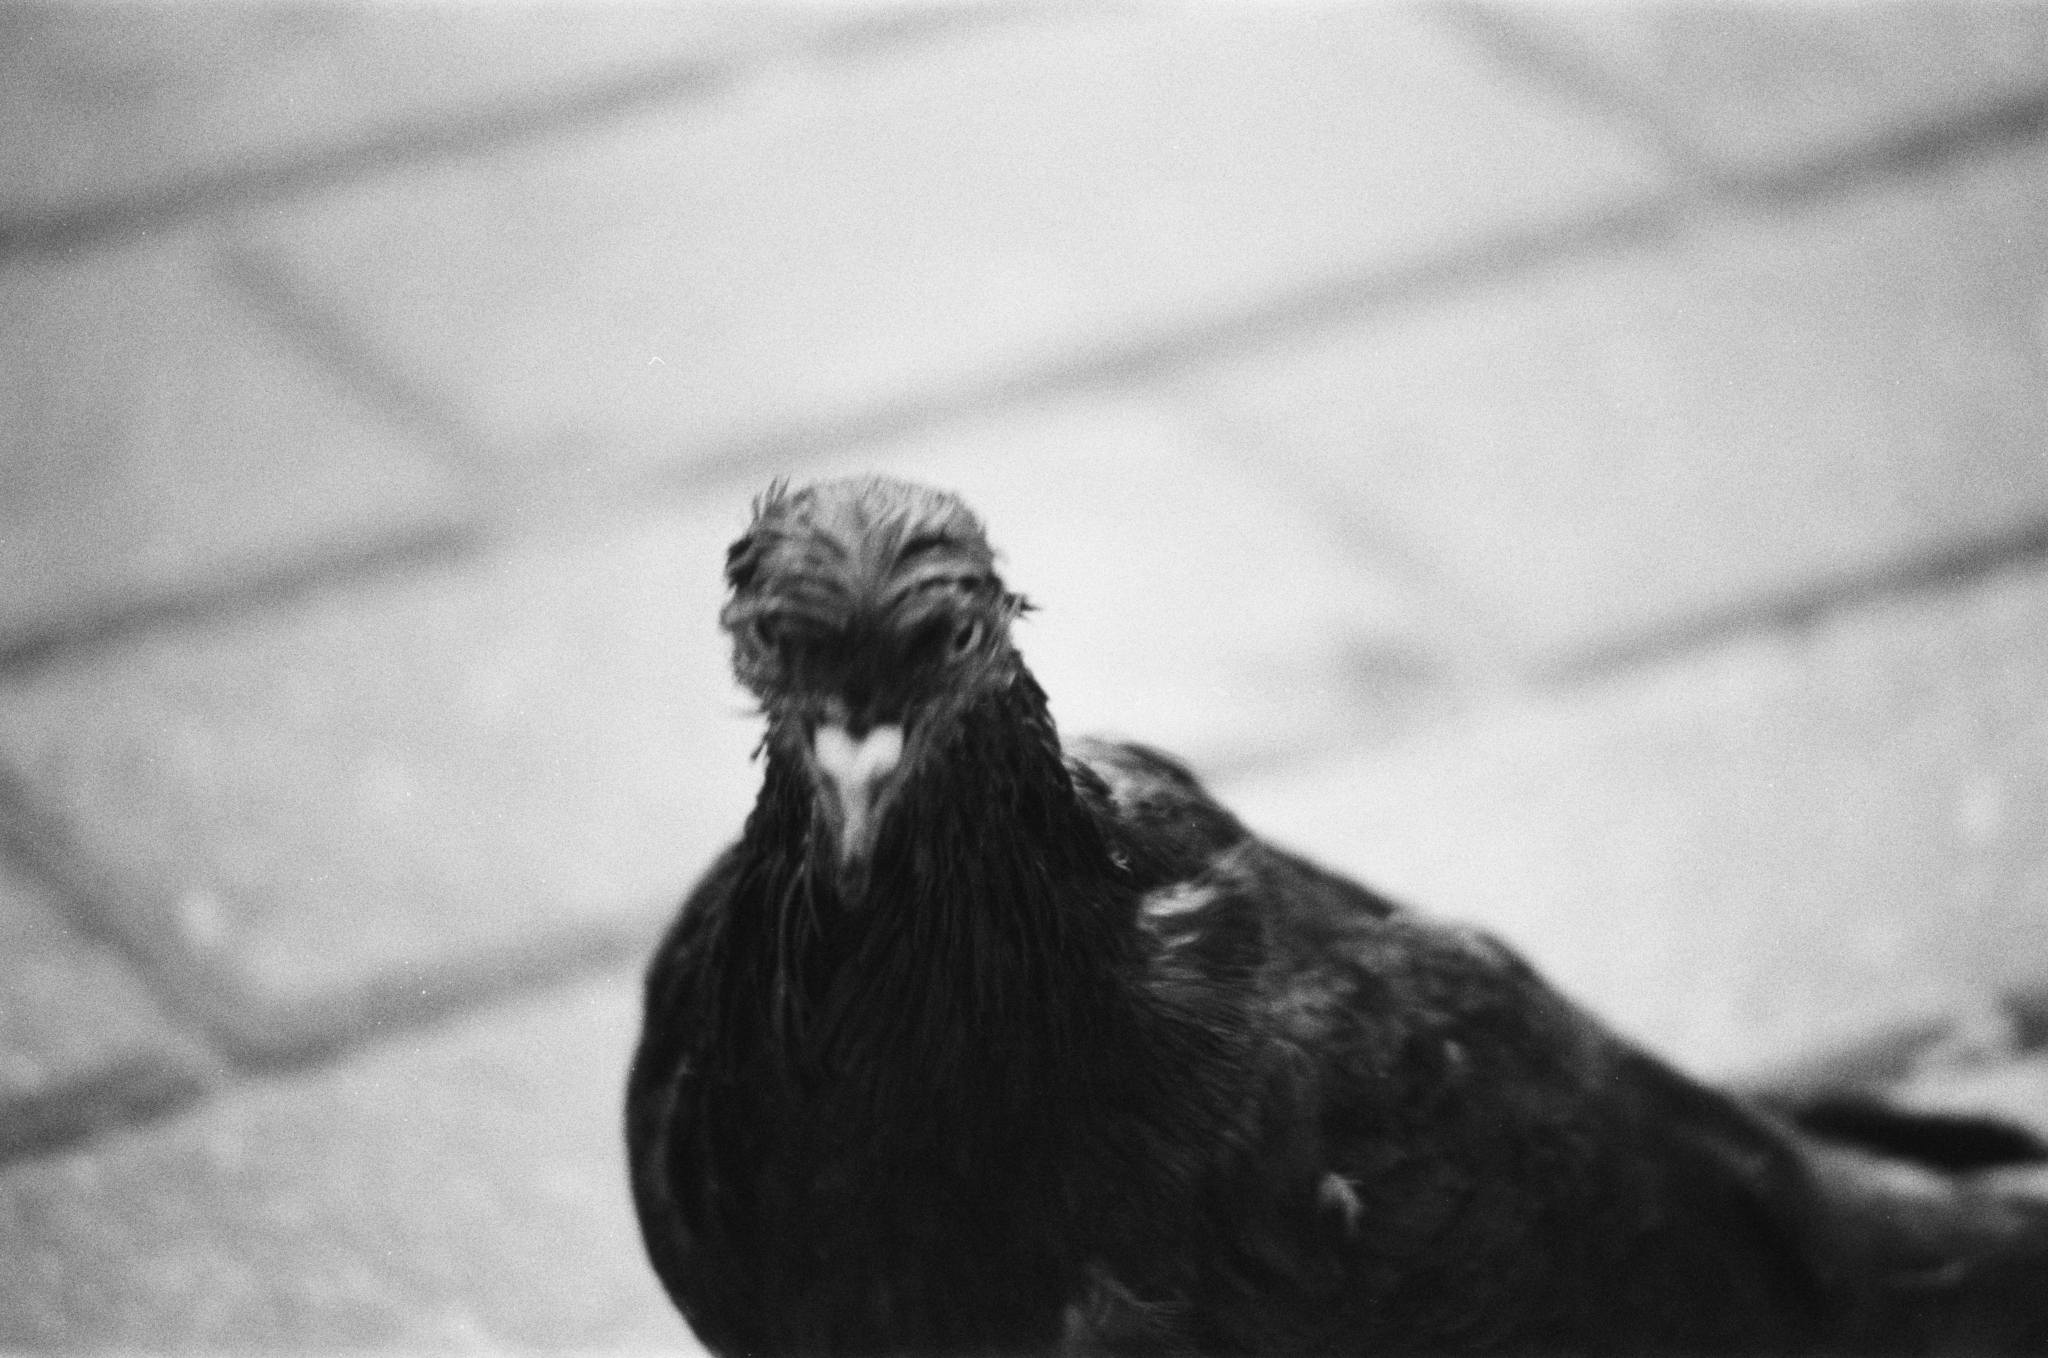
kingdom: Animalia
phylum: Chordata
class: Aves
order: Columbiformes
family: Columbidae
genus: Columba
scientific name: Columba livia
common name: Rock pigeon
